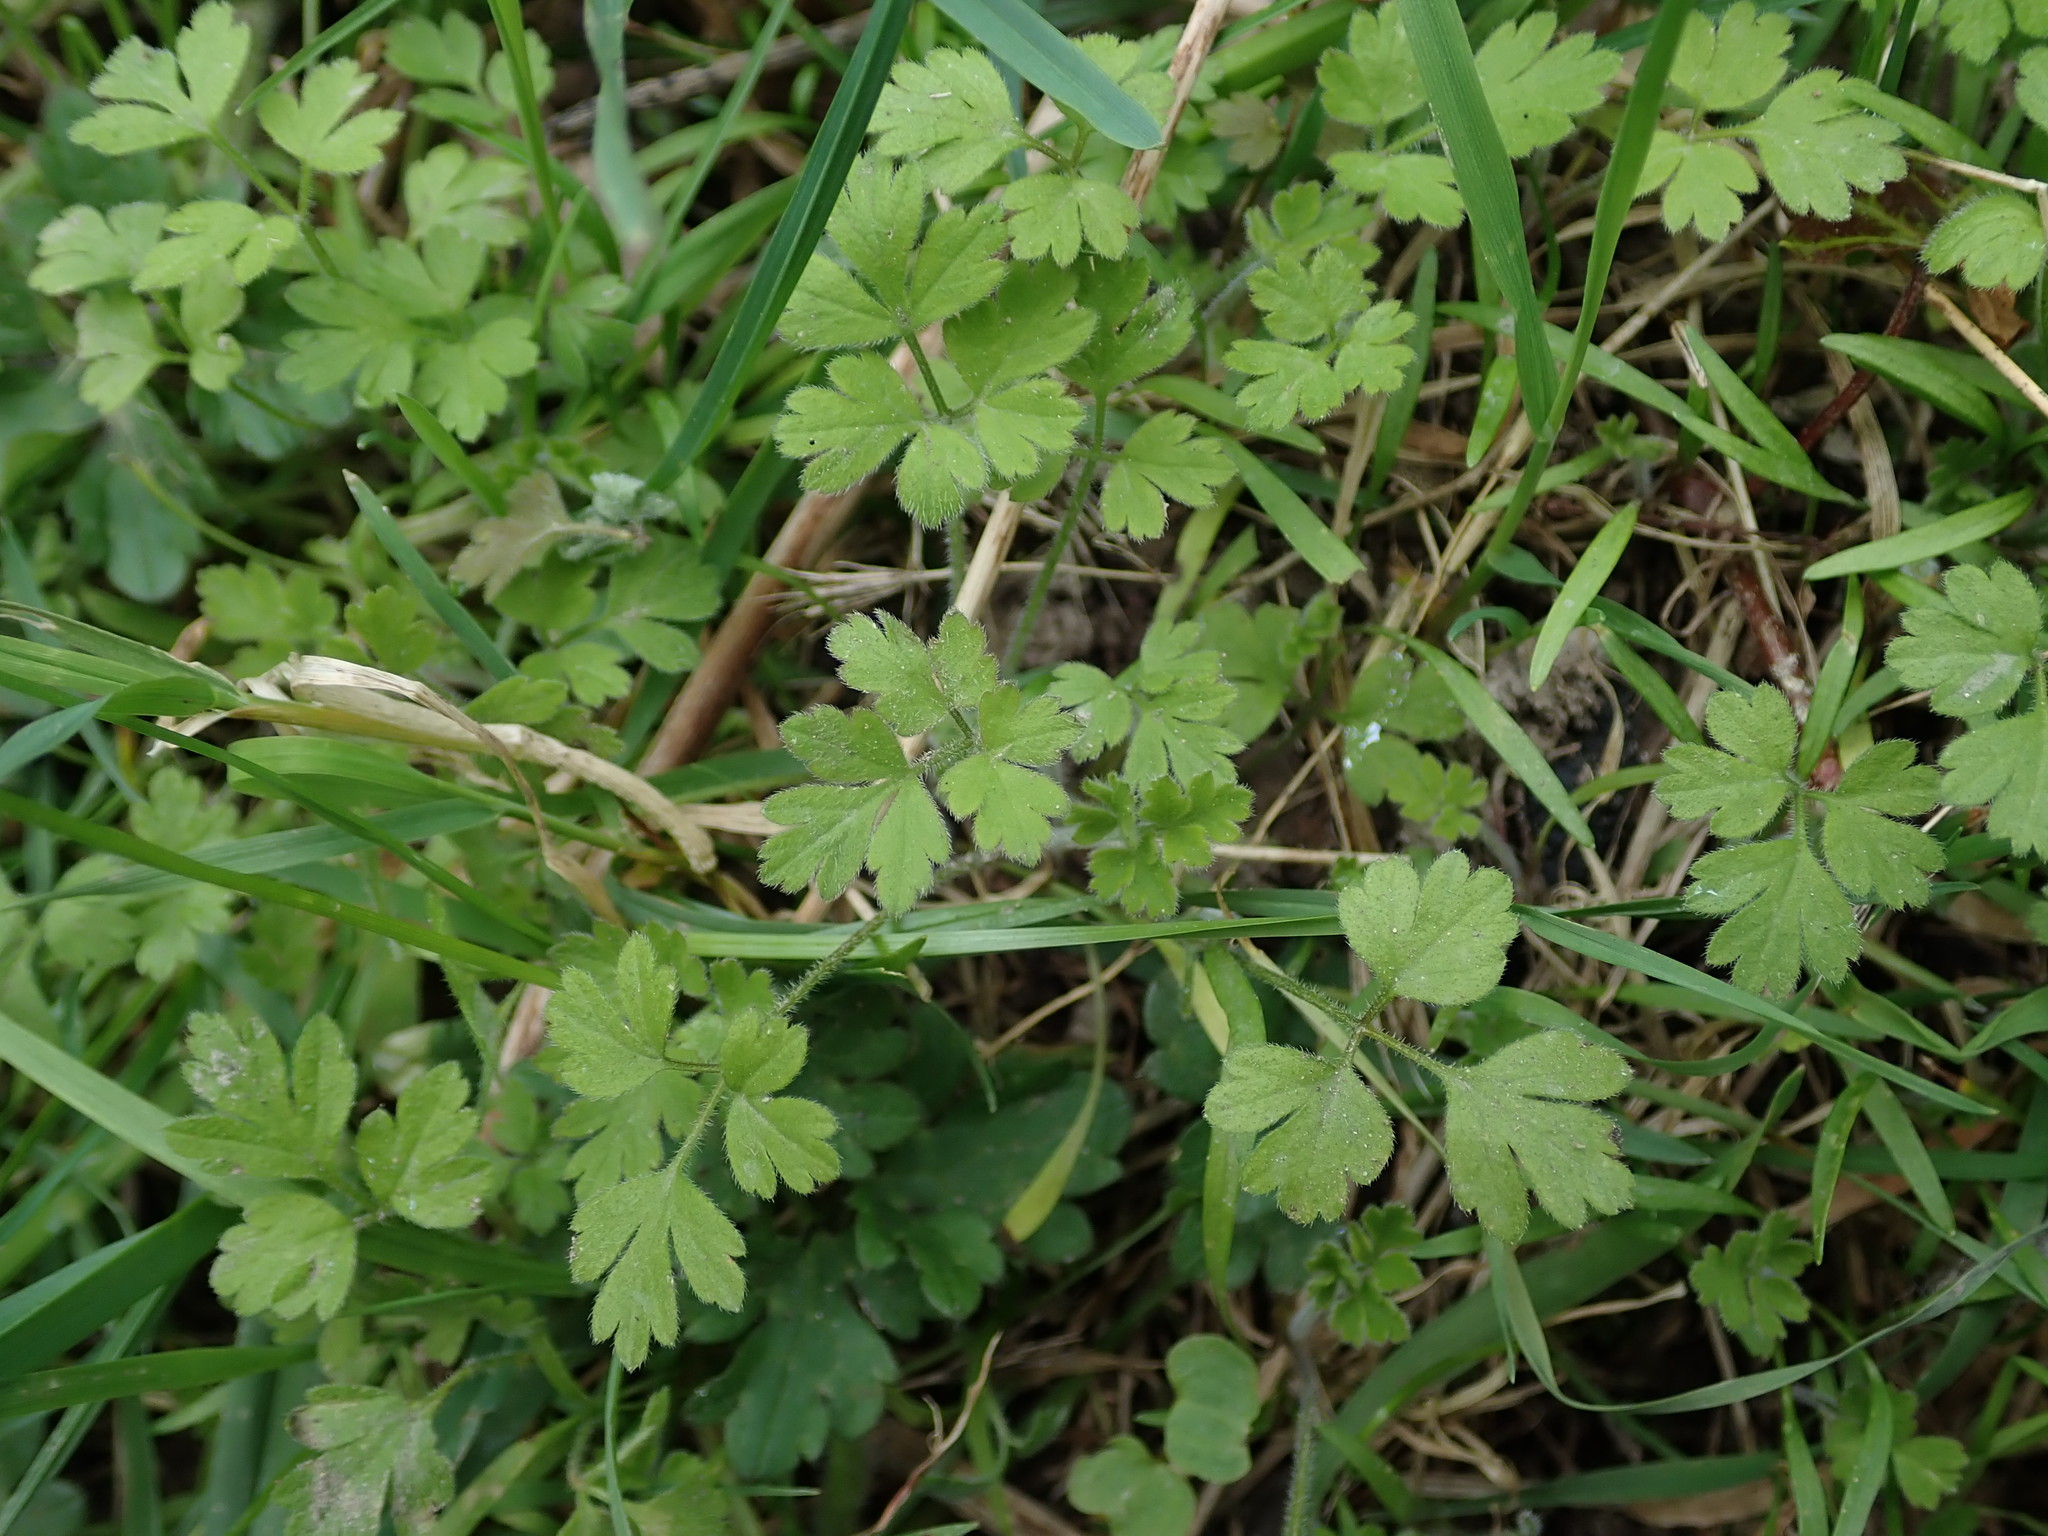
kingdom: Plantae
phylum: Tracheophyta
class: Magnoliopsida
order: Apiales
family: Apiaceae
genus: Anthriscus
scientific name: Anthriscus sylvestris
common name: Cow parsley
